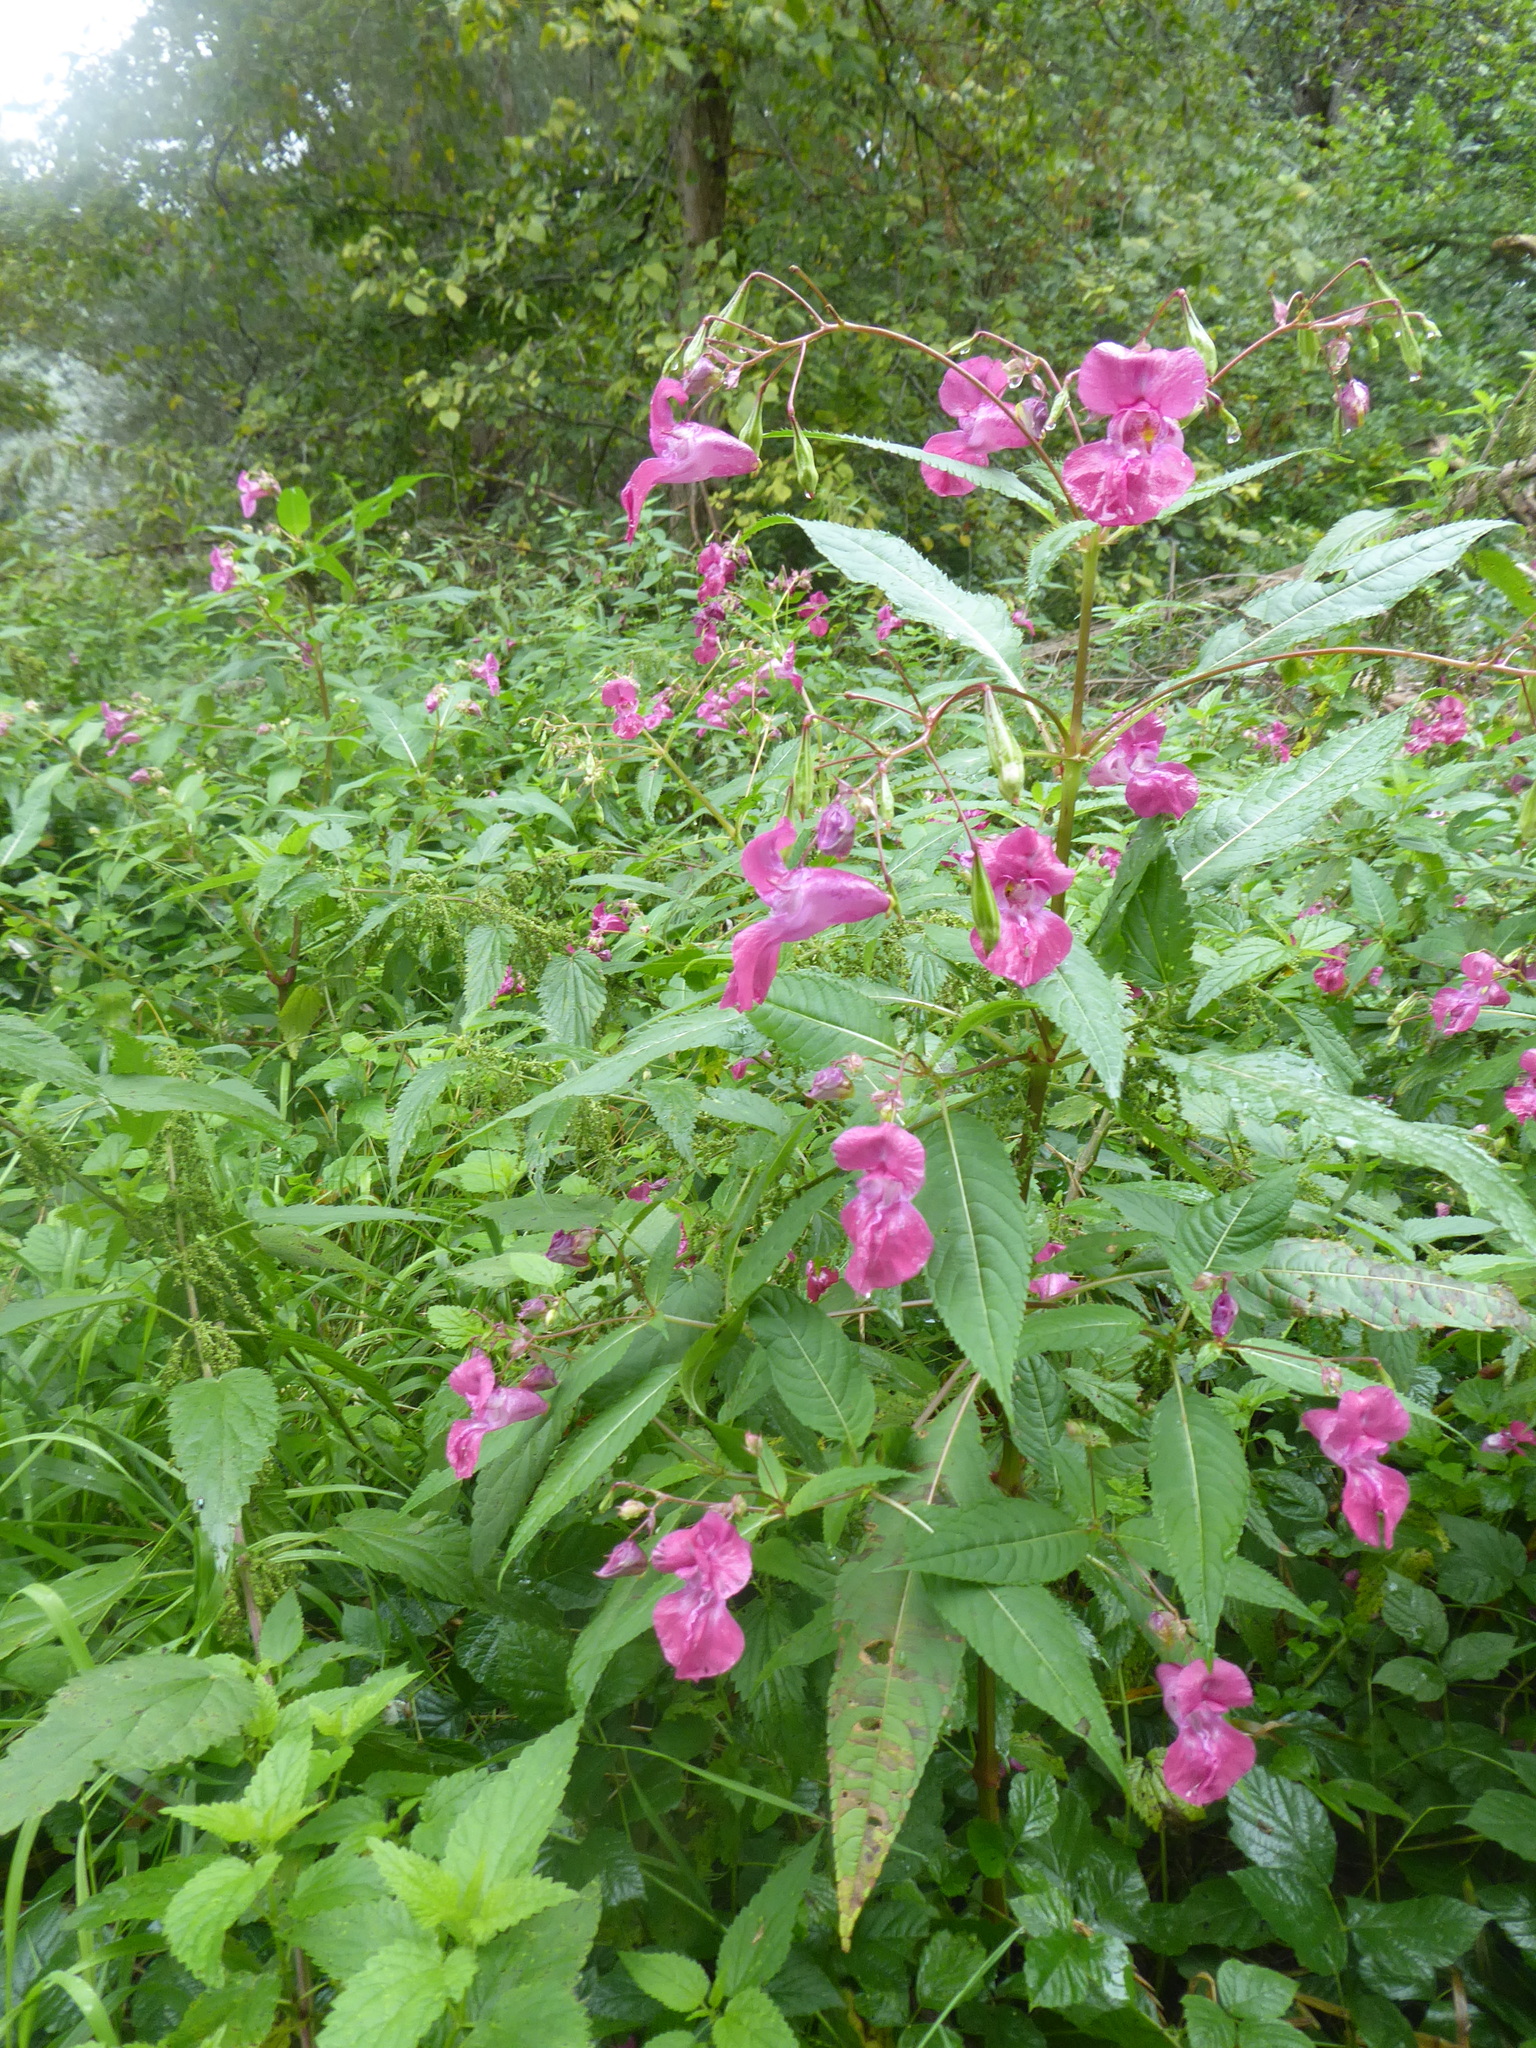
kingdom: Plantae
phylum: Tracheophyta
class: Magnoliopsida
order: Ericales
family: Balsaminaceae
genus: Impatiens
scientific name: Impatiens glandulifera
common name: Himalayan balsam
